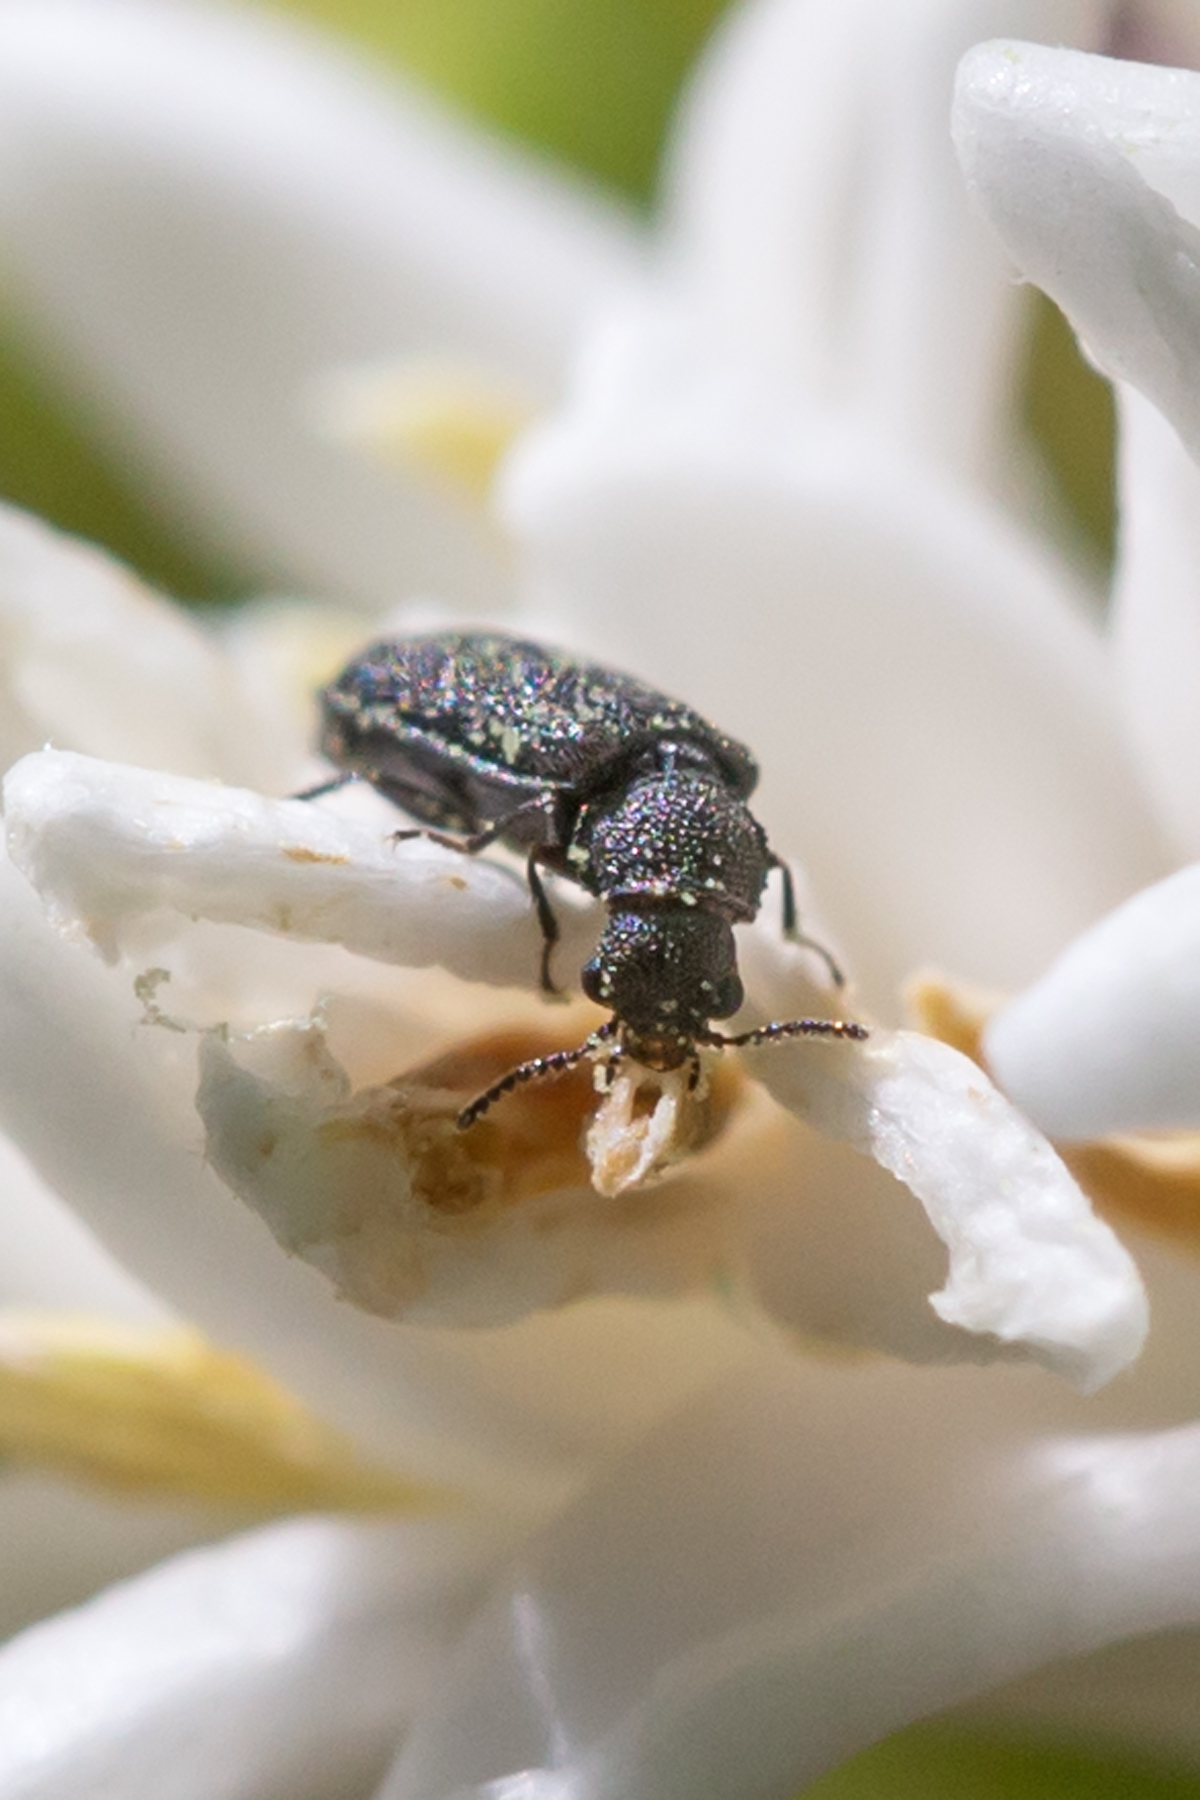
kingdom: Animalia
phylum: Arthropoda
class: Insecta
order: Coleoptera
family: Melyridae
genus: Melyrodes
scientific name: Melyrodes
